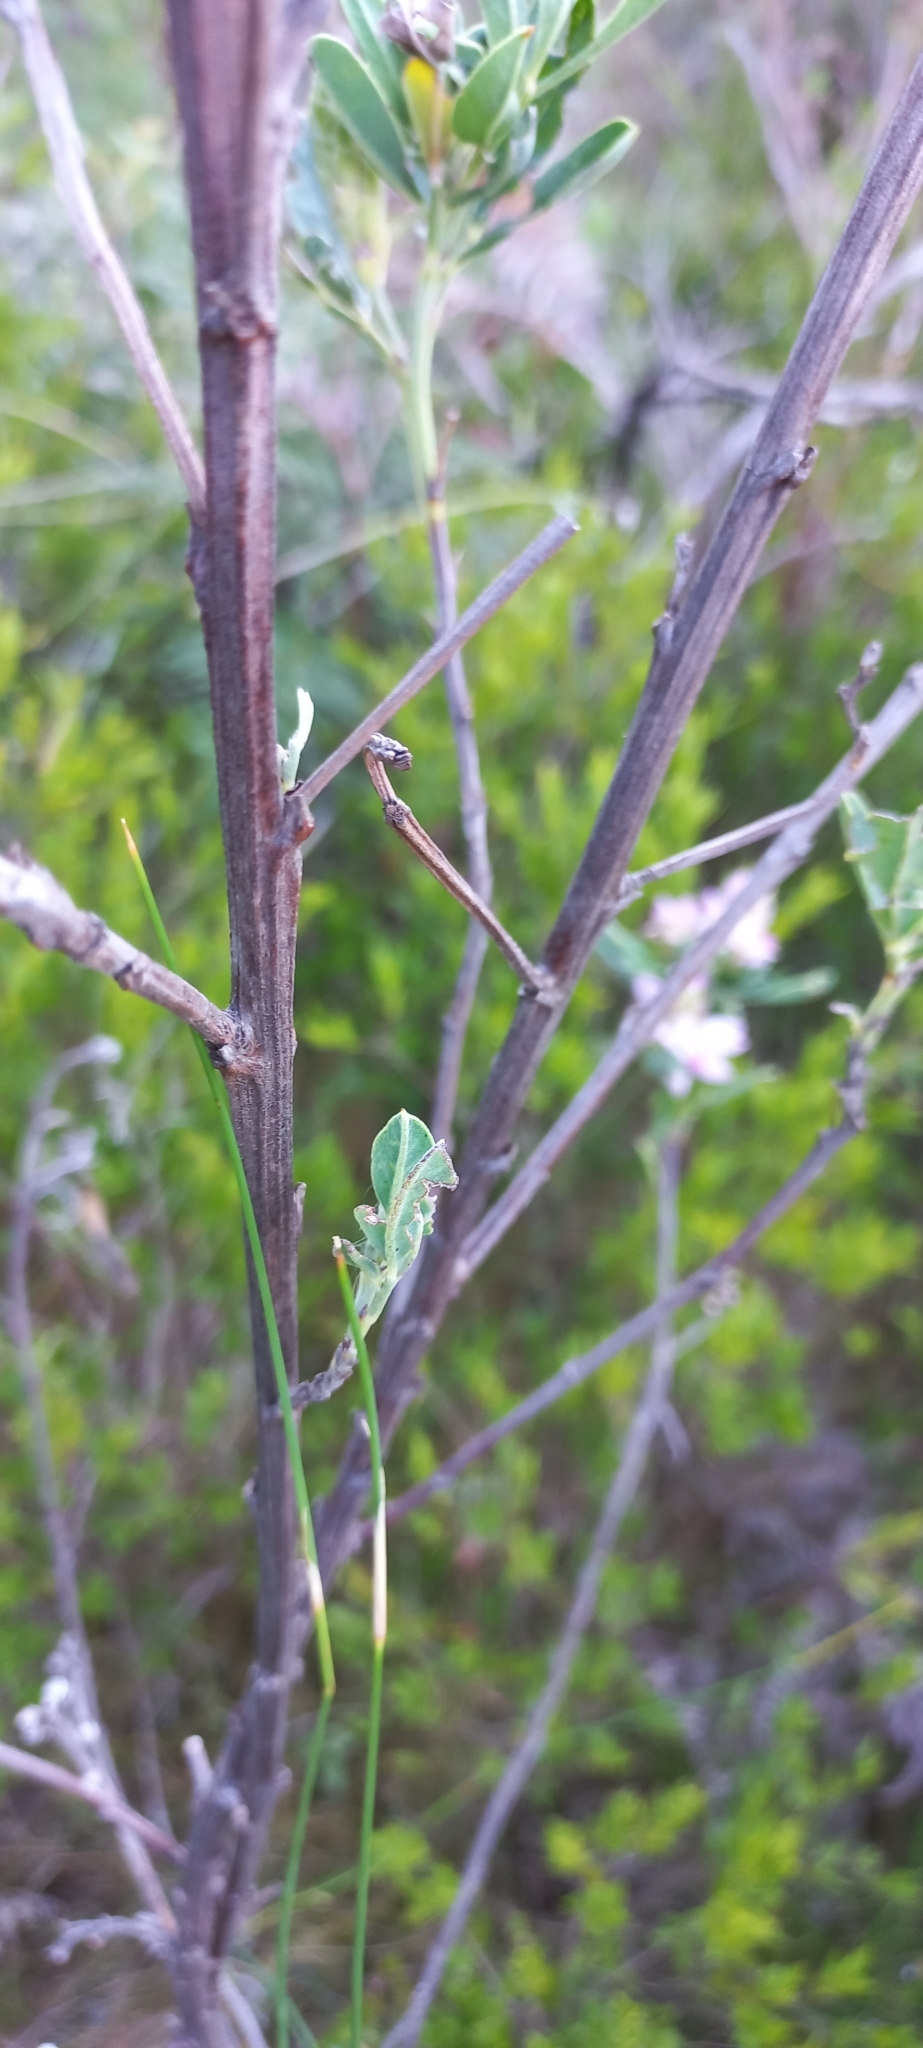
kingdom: Plantae
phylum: Tracheophyta
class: Magnoliopsida
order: Fabales
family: Fabaceae
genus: Indigofera
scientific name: Indigofera cytisoides
